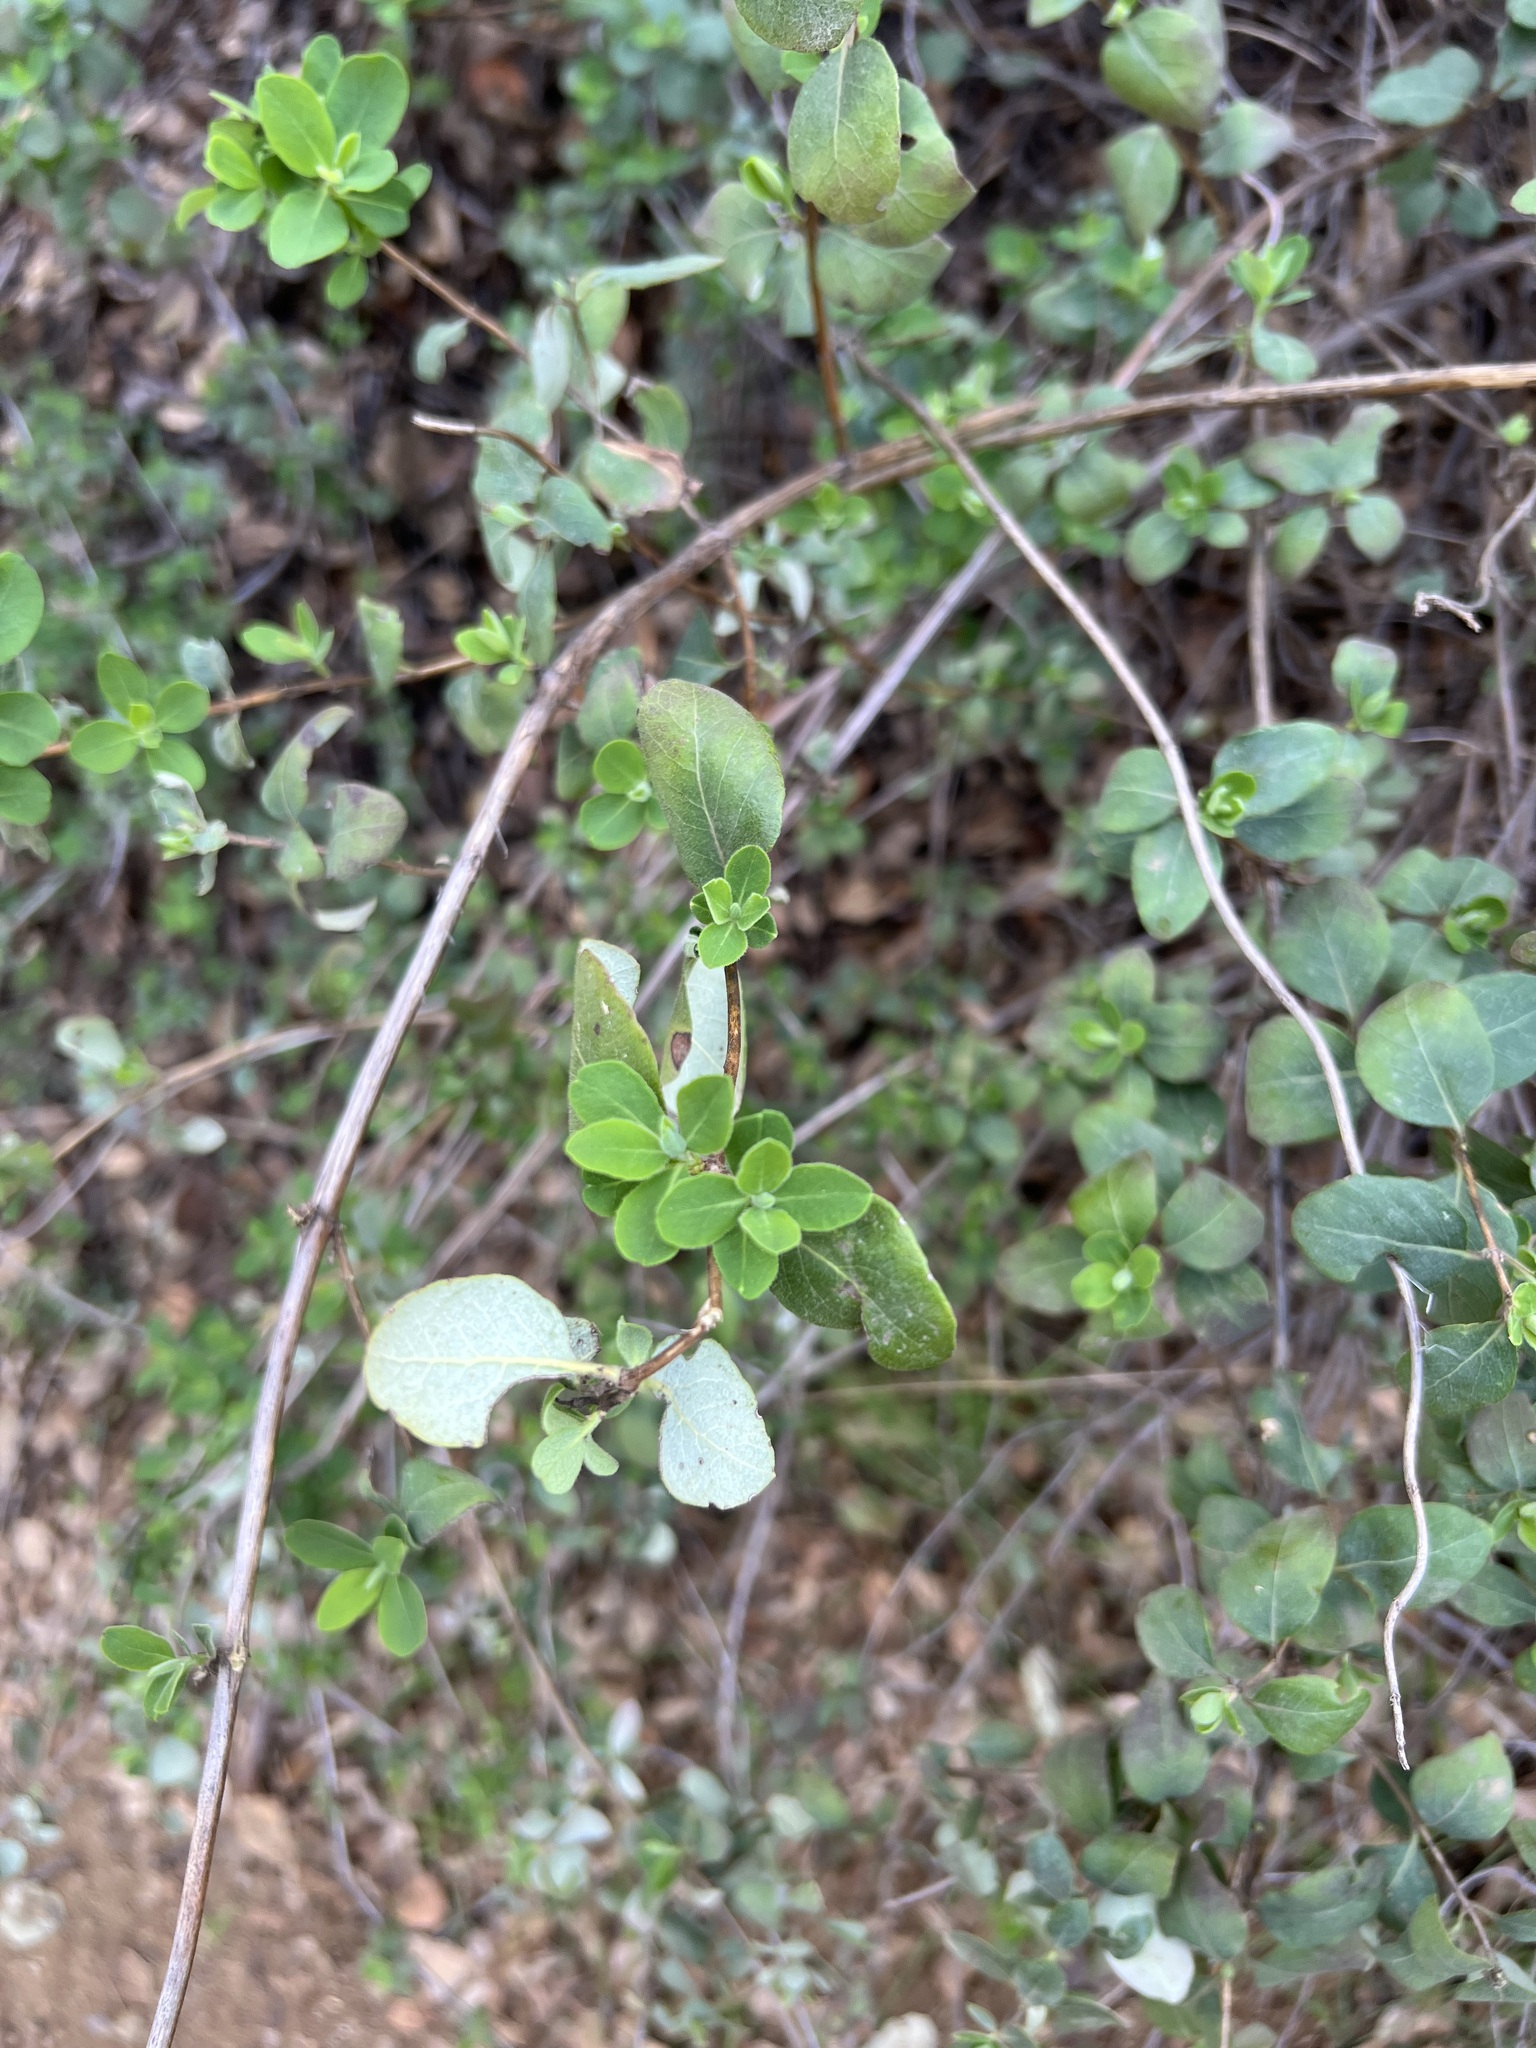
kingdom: Plantae
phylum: Tracheophyta
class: Magnoliopsida
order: Dipsacales
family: Caprifoliaceae
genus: Lonicera
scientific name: Lonicera subspicata
